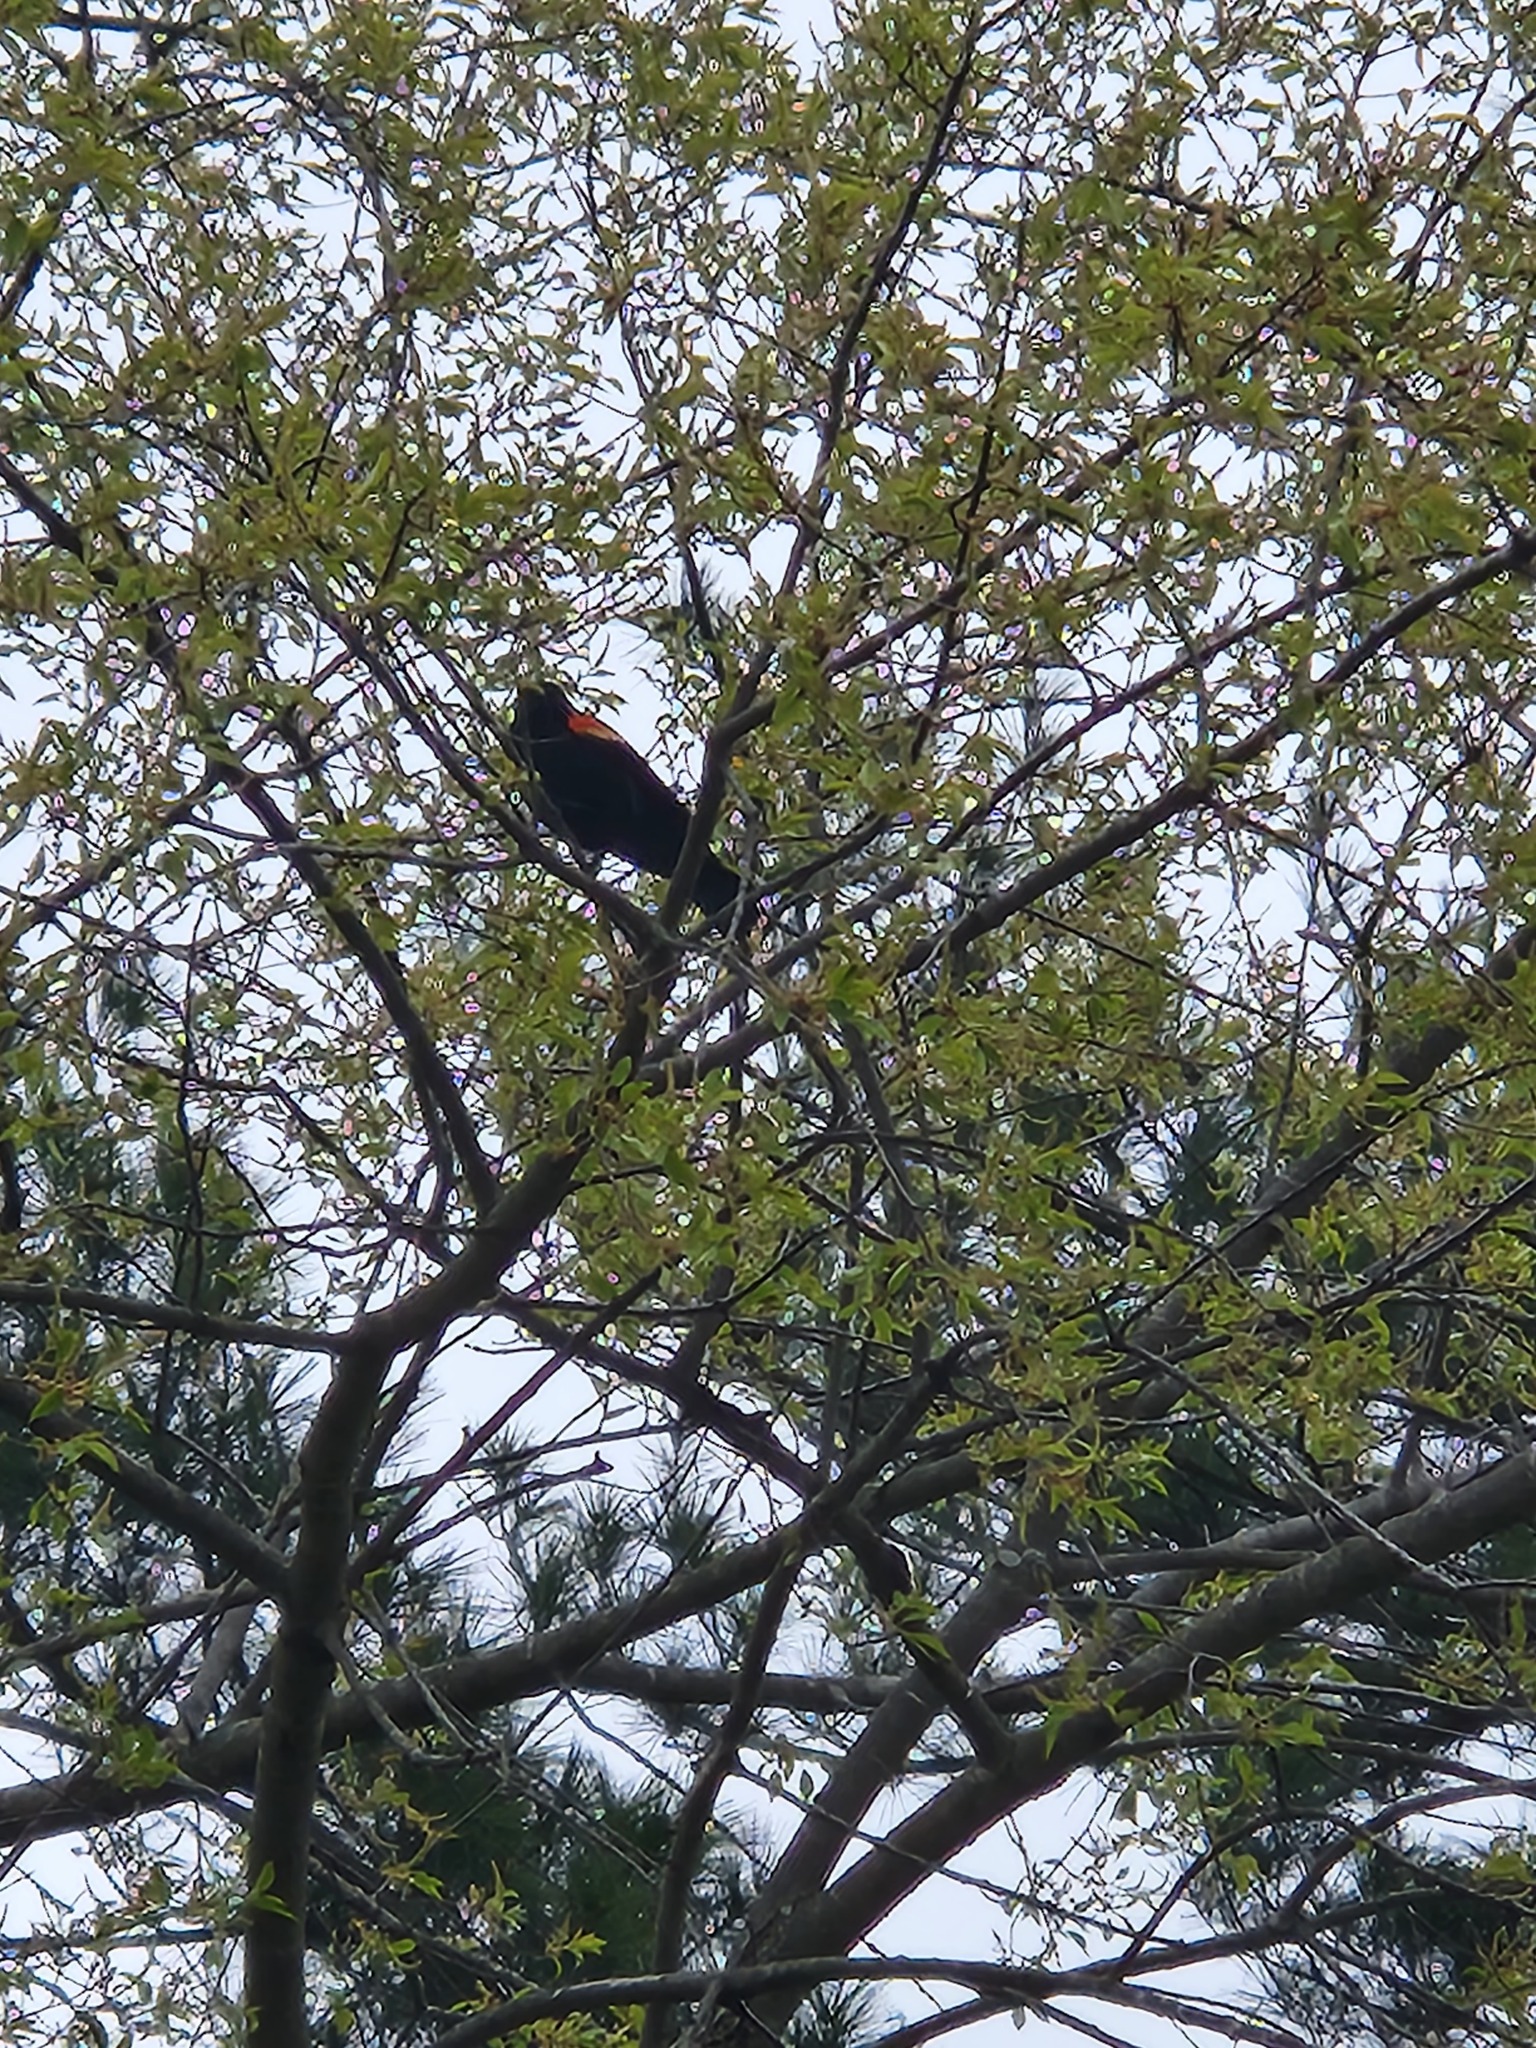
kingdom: Animalia
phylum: Chordata
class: Aves
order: Passeriformes
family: Icteridae
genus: Agelaius
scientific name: Agelaius phoeniceus
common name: Red-winged blackbird
